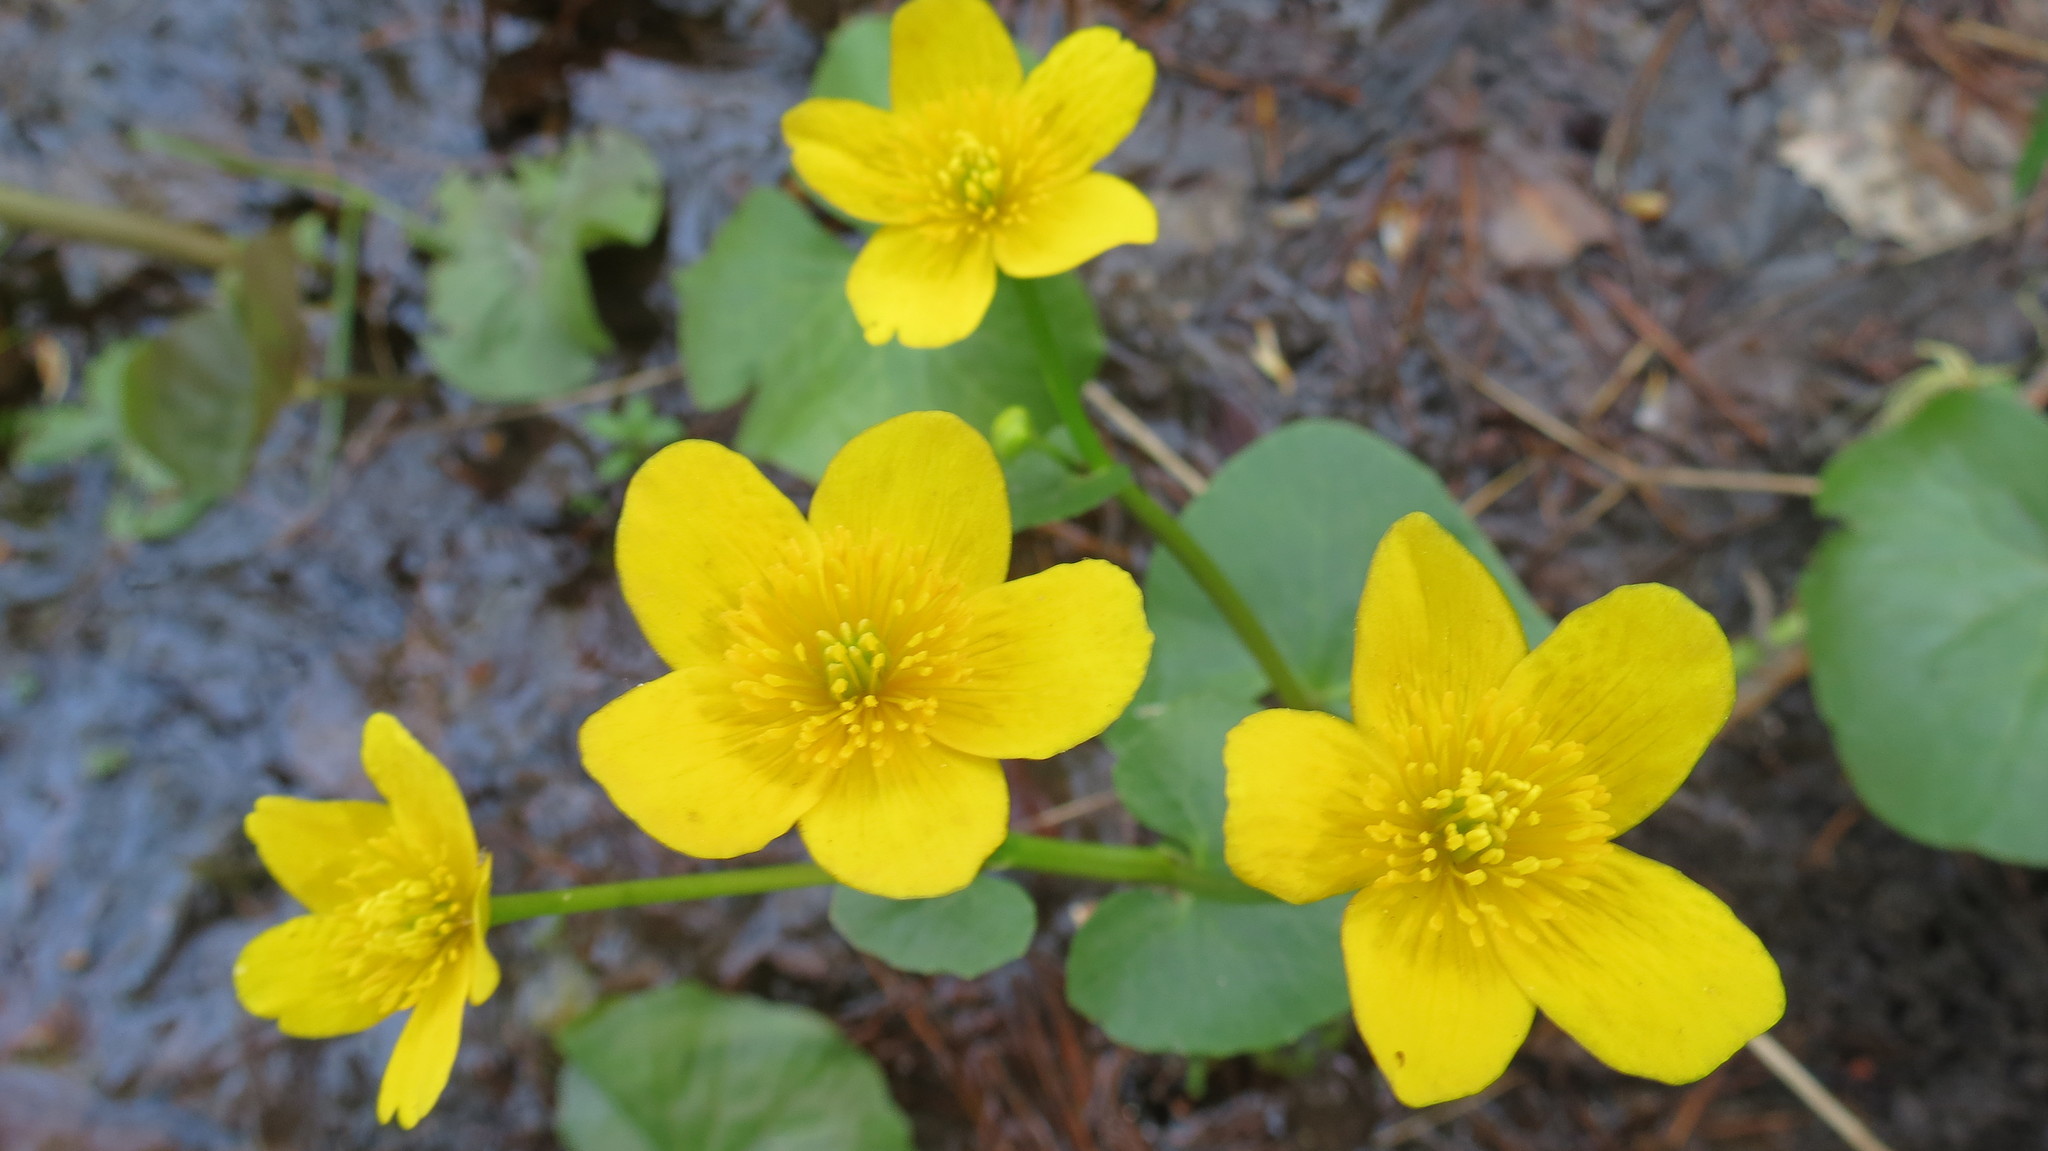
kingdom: Plantae
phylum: Tracheophyta
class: Magnoliopsida
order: Ranunculales
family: Ranunculaceae
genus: Caltha
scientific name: Caltha palustris
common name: Marsh marigold
